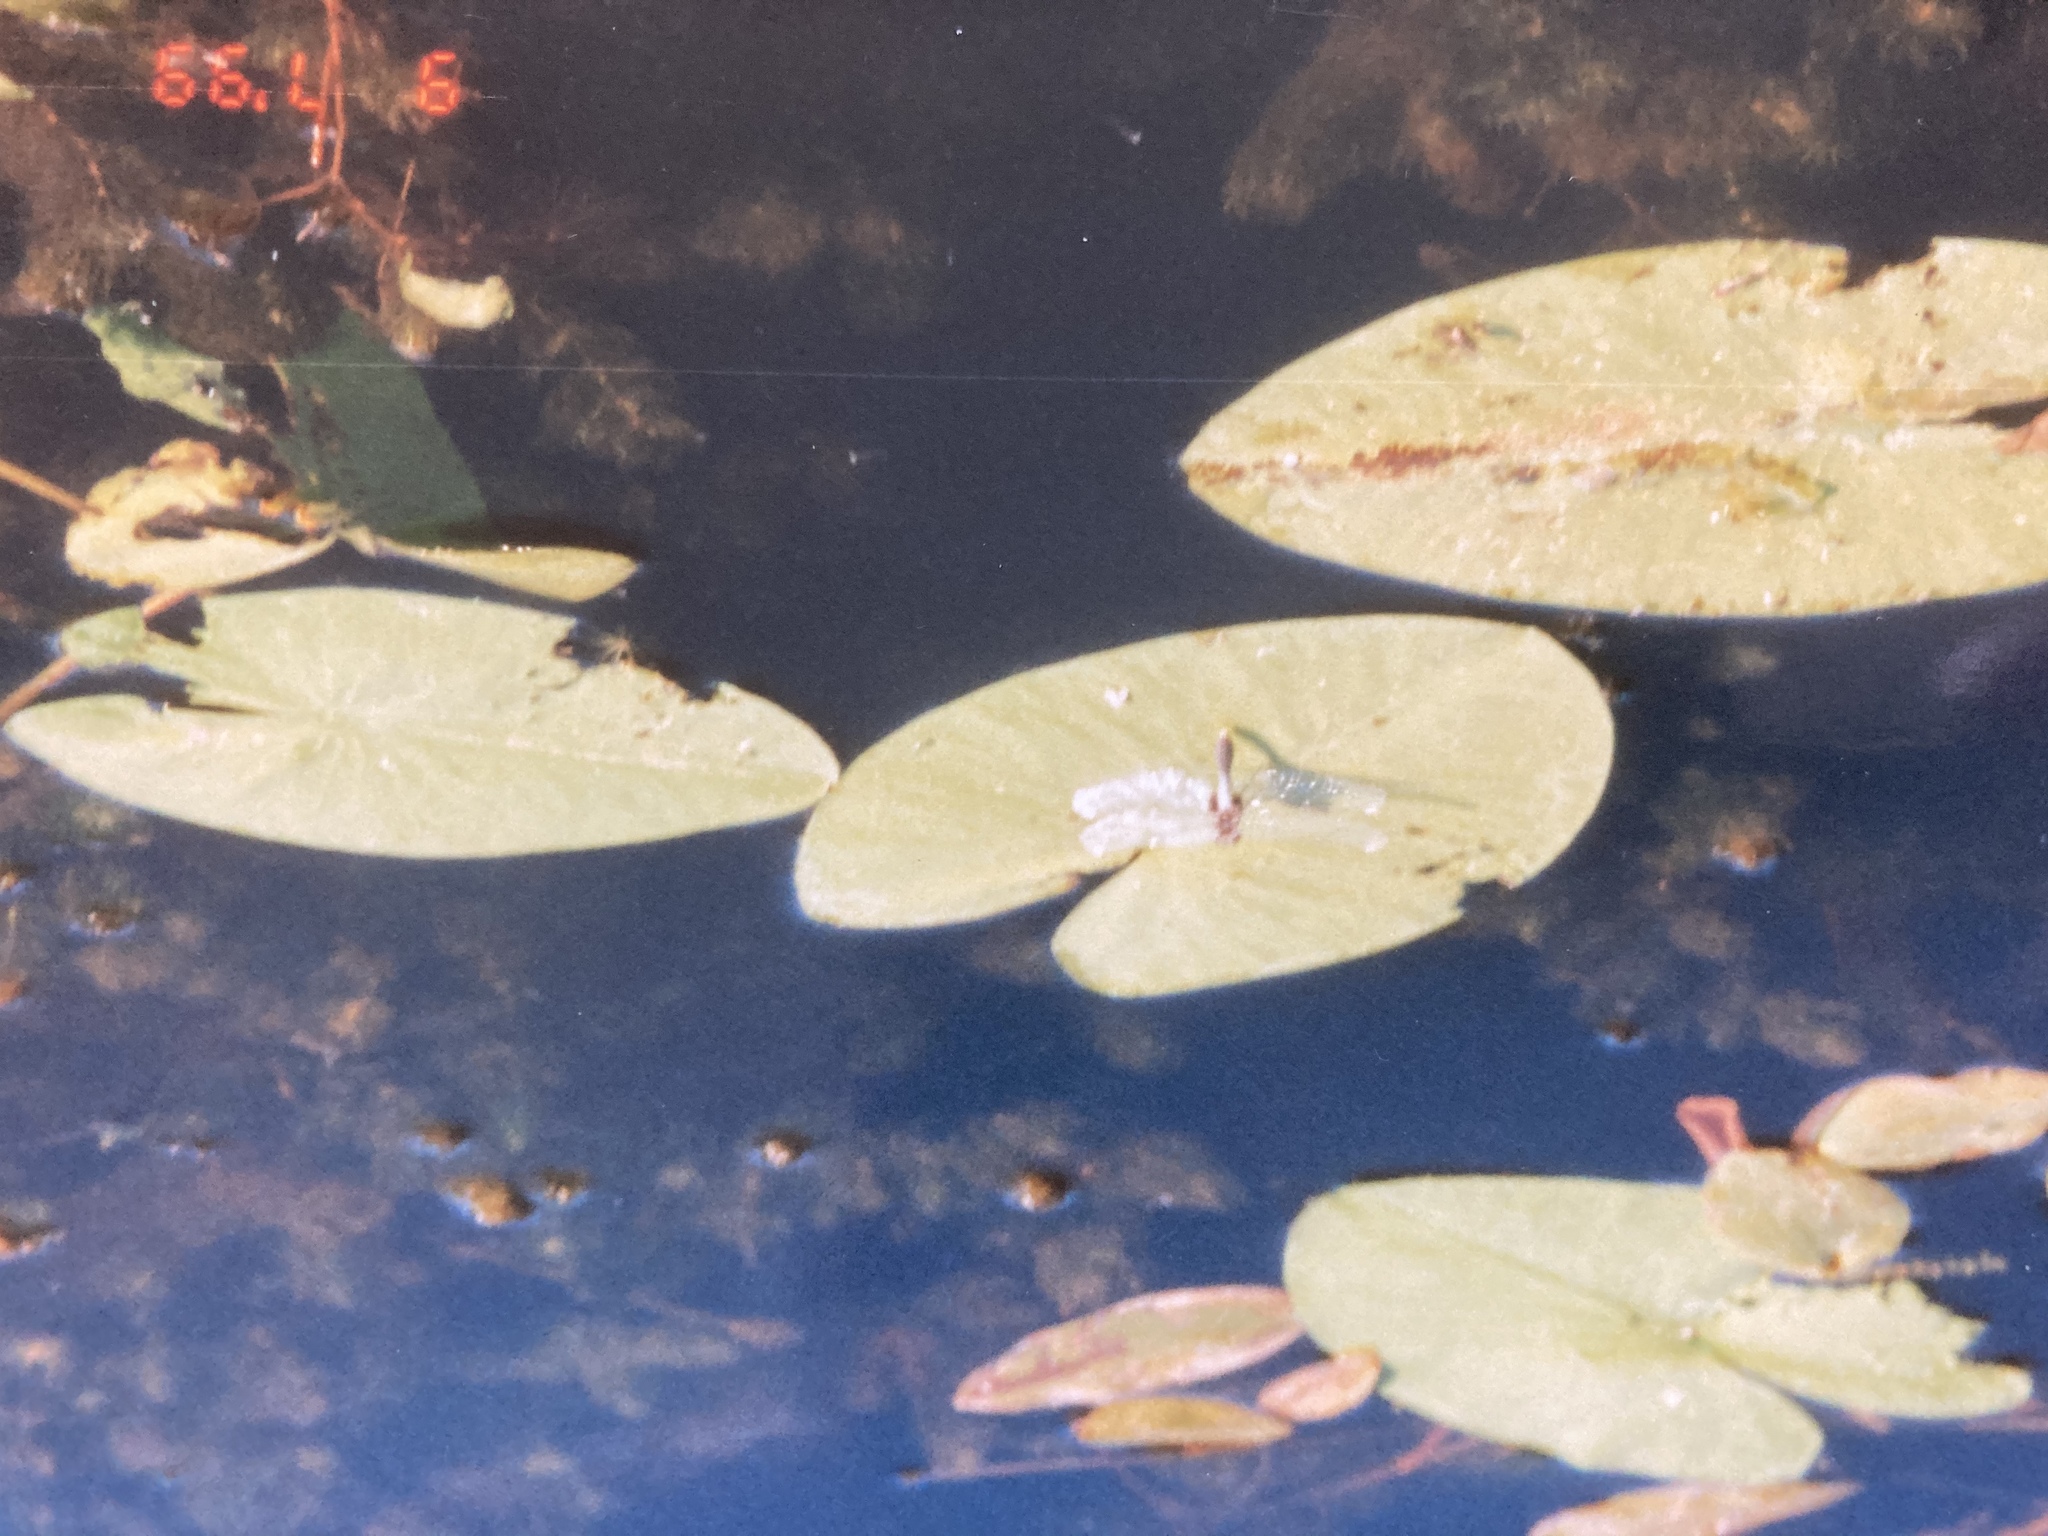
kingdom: Animalia
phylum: Arthropoda
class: Insecta
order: Odonata
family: Libellulidae
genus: Leucorrhinia
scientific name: Leucorrhinia caudalis
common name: Lilypad whiteface
